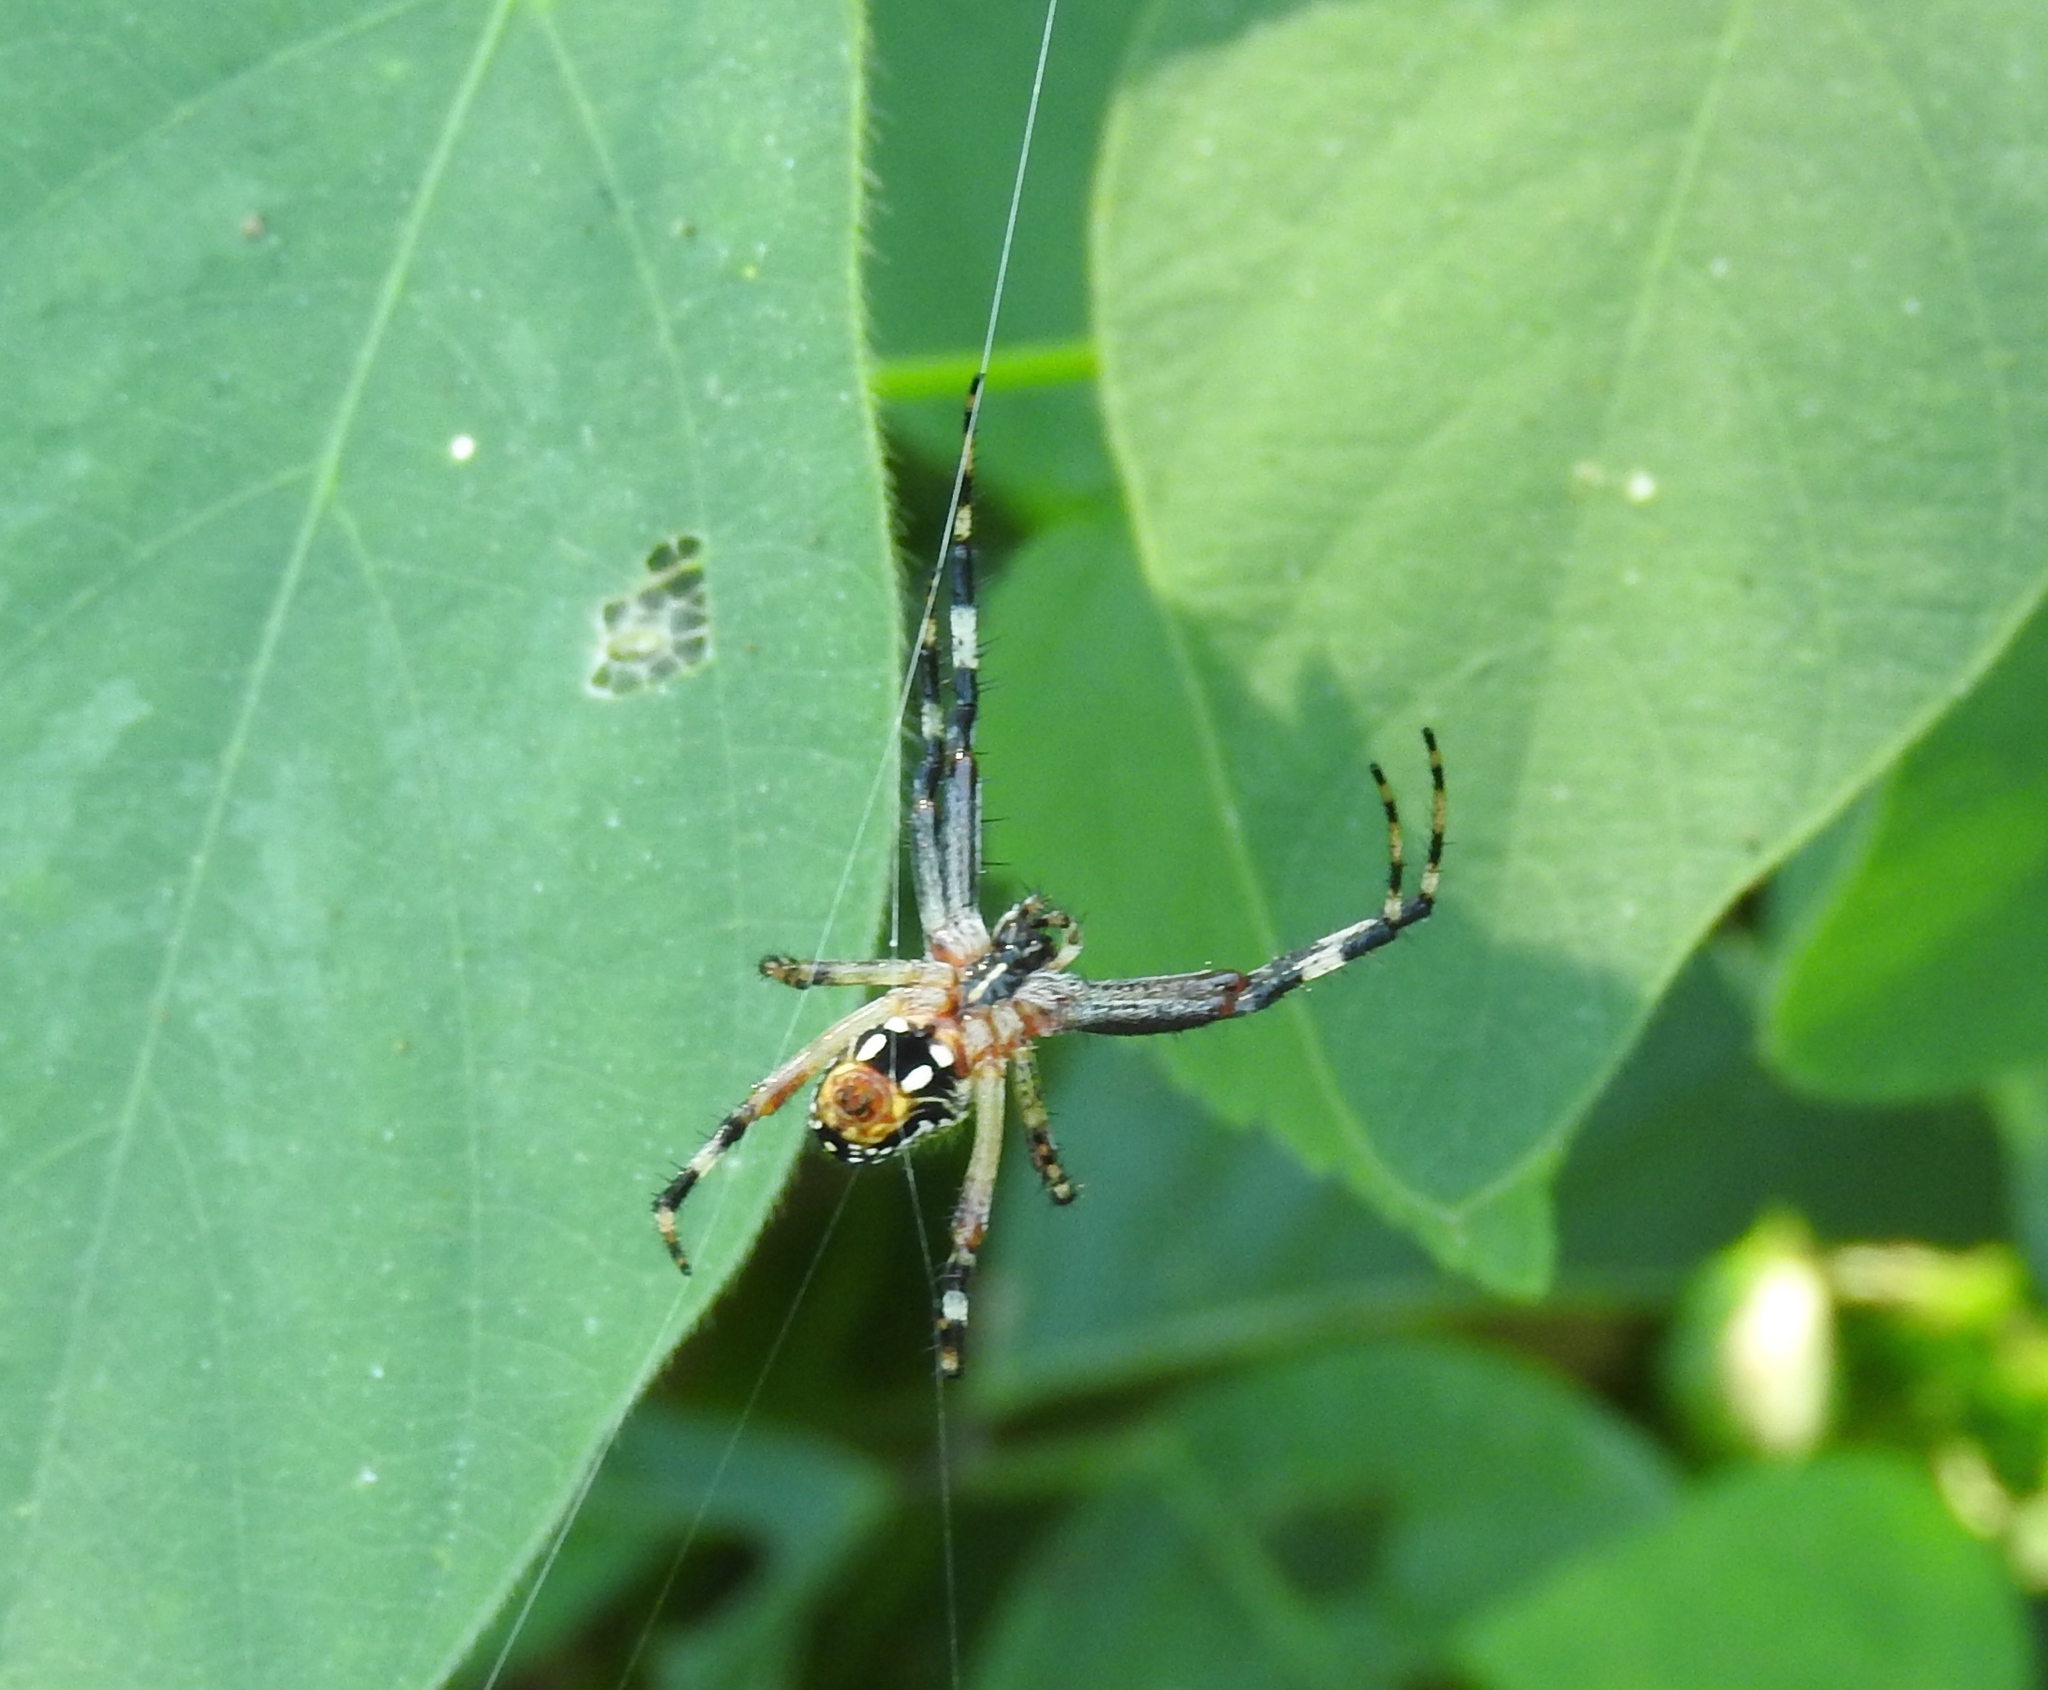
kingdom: Animalia
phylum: Arthropoda
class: Arachnida
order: Araneae
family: Araneidae
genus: Neoscona
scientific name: Neoscona oaxacensis
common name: Orb weavers
